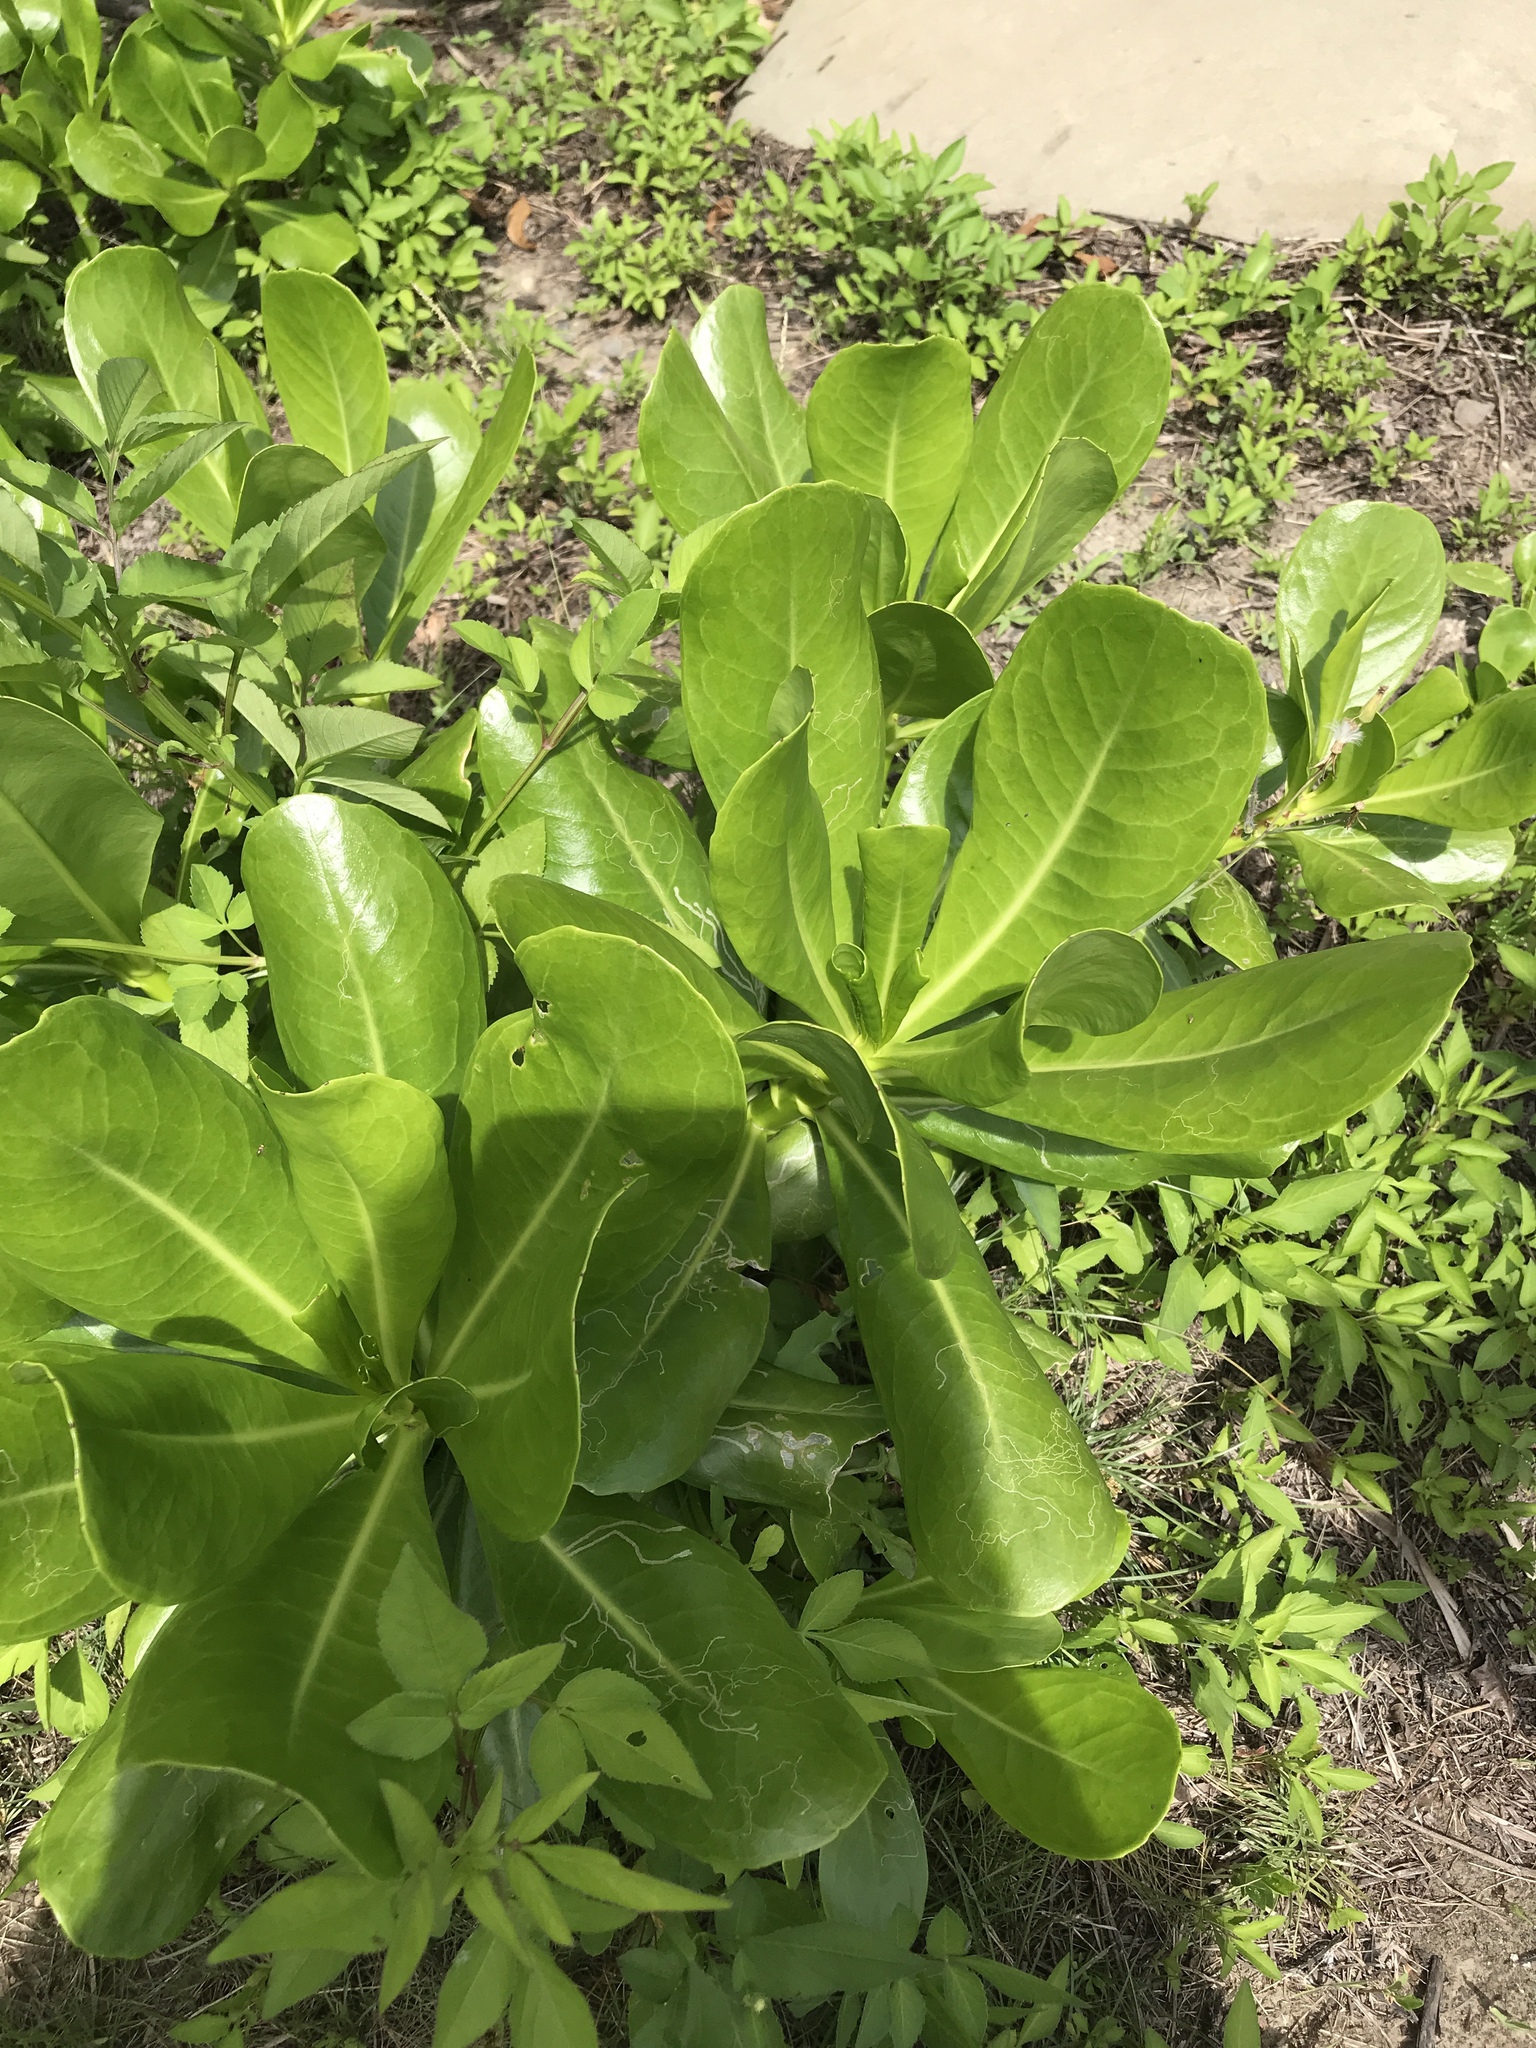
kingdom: Plantae
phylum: Tracheophyta
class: Magnoliopsida
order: Asterales
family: Goodeniaceae
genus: Scaevola
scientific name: Scaevola taccada
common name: Sea lettucetree
